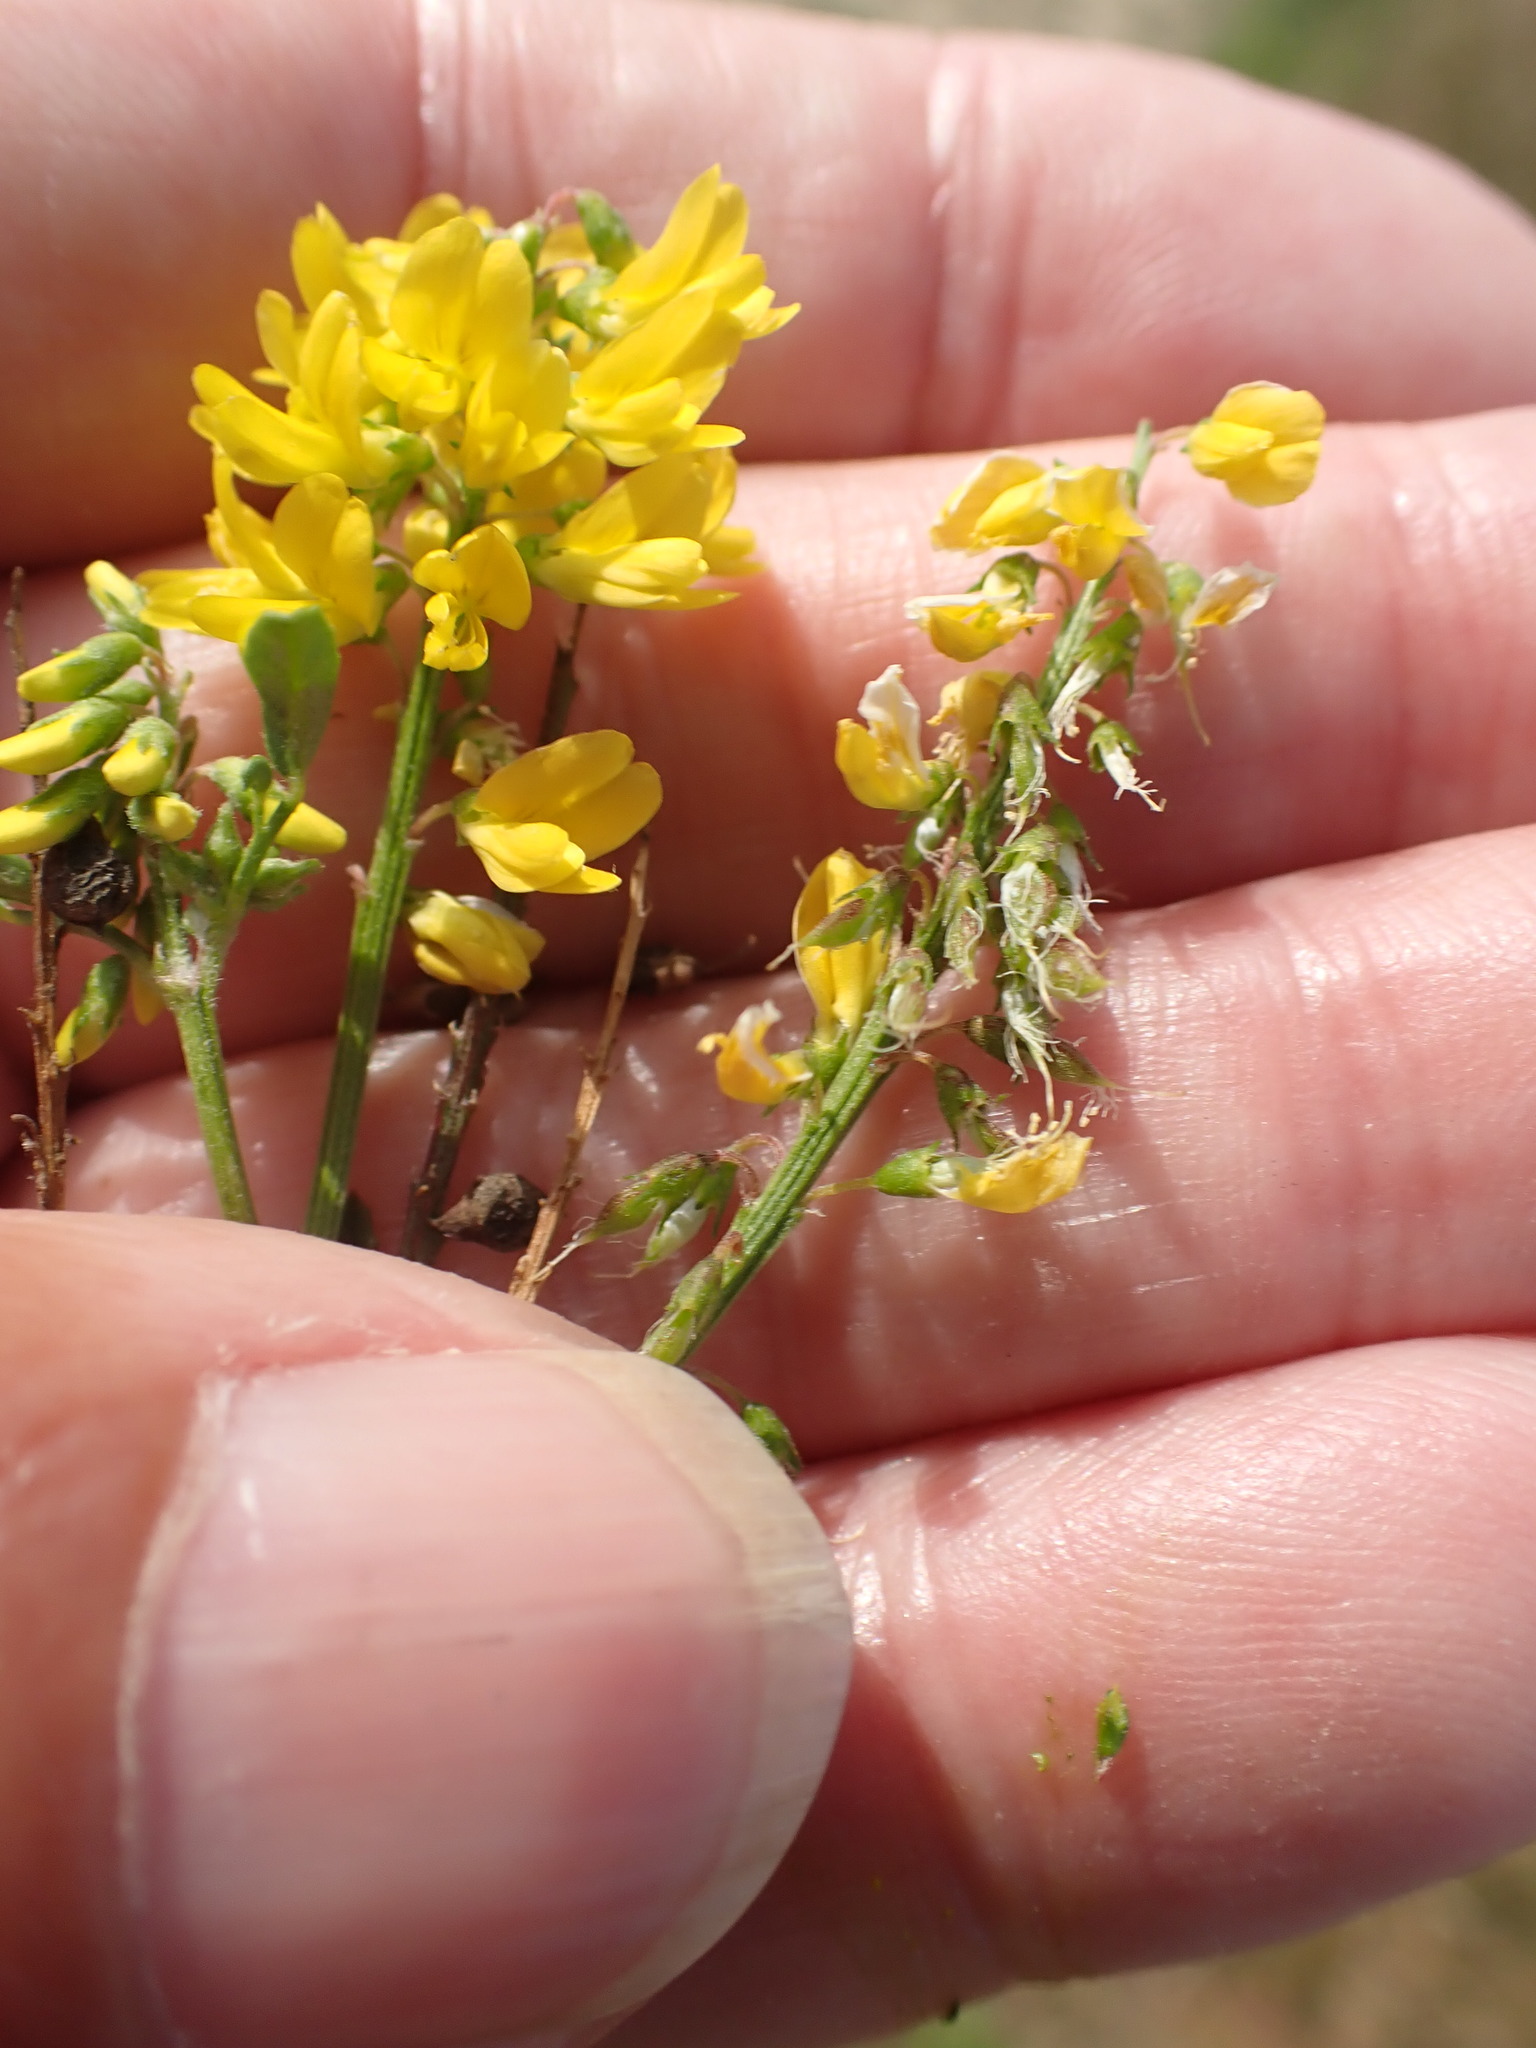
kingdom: Plantae
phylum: Tracheophyta
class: Magnoliopsida
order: Fabales
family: Fabaceae
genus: Melilotus
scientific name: Melilotus officinalis
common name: Sweetclover
